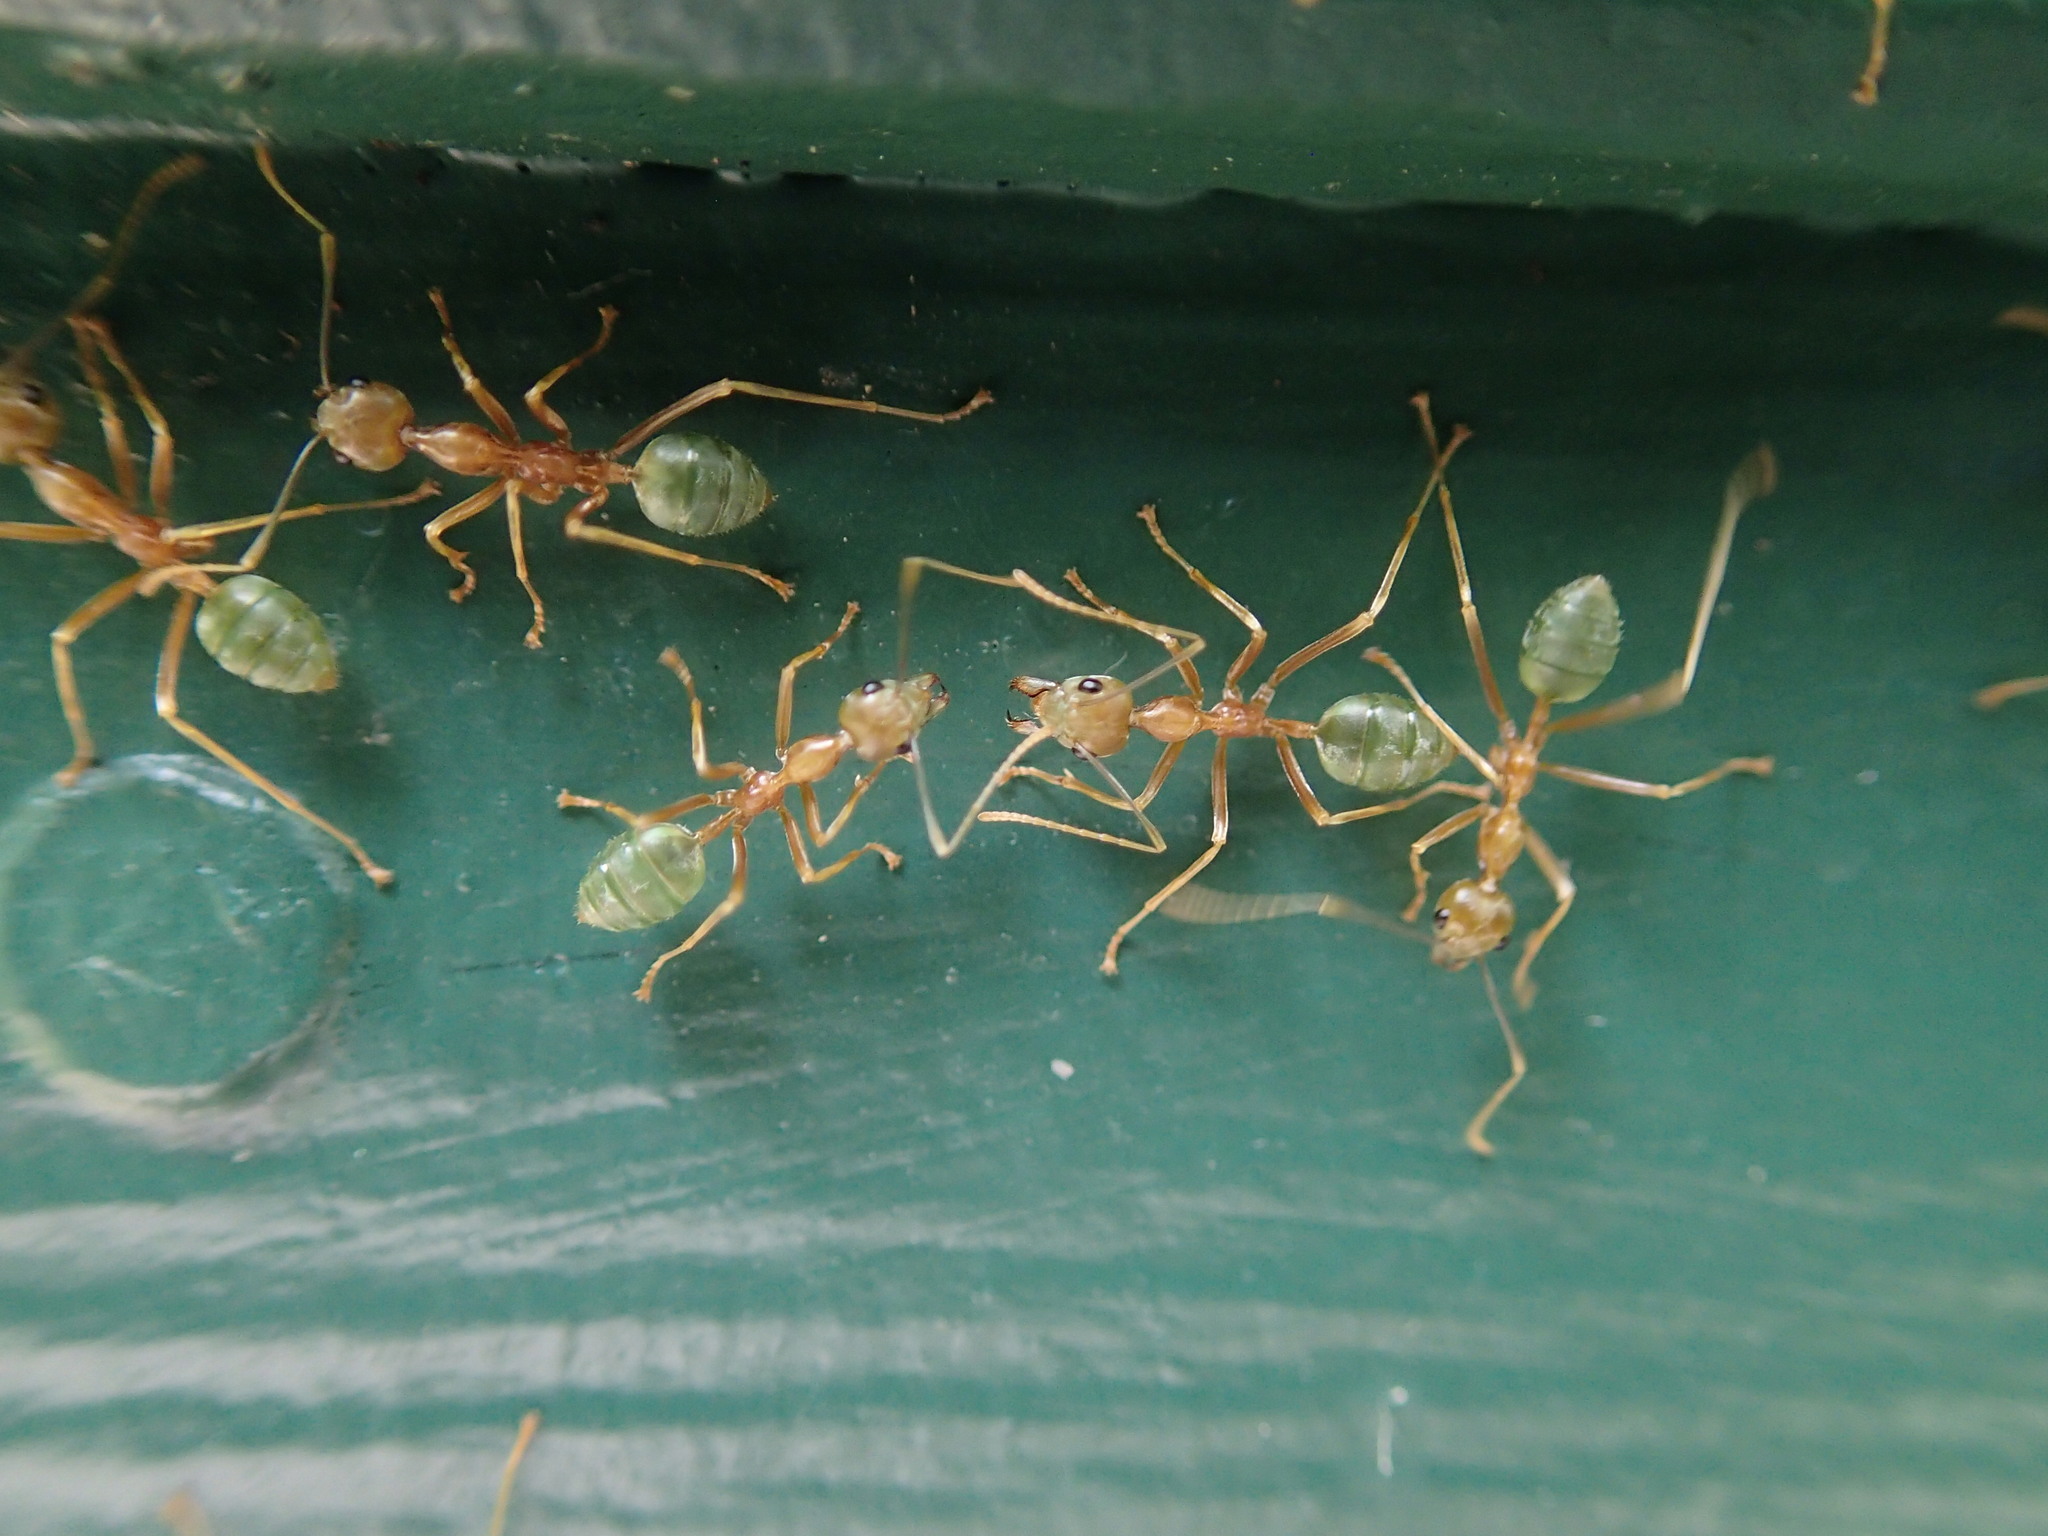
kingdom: Animalia
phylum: Arthropoda
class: Insecta
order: Hymenoptera
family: Formicidae
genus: Oecophylla
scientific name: Oecophylla smaragdina
